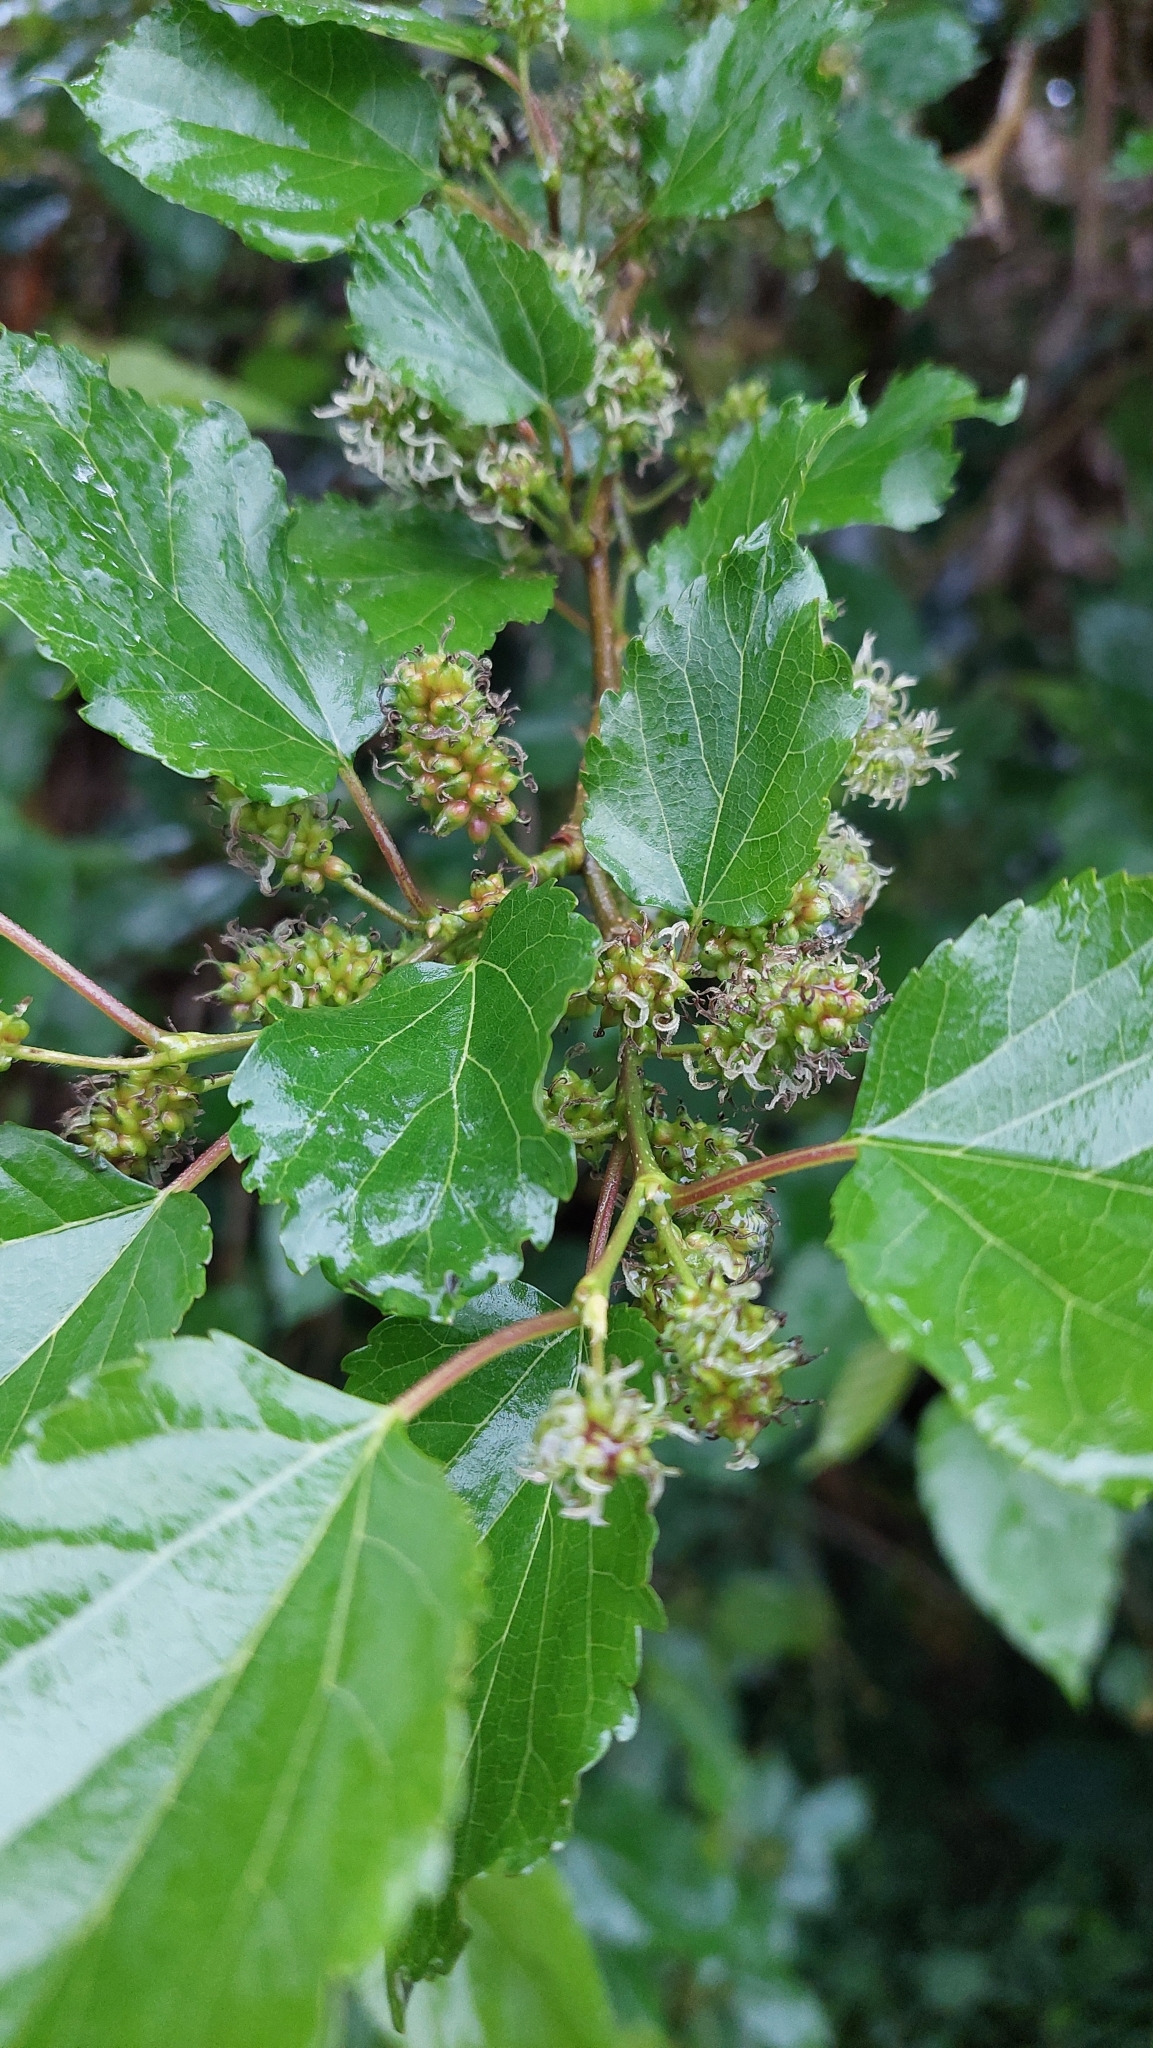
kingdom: Plantae
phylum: Tracheophyta
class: Magnoliopsida
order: Rosales
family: Moraceae
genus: Morus
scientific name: Morus indica
